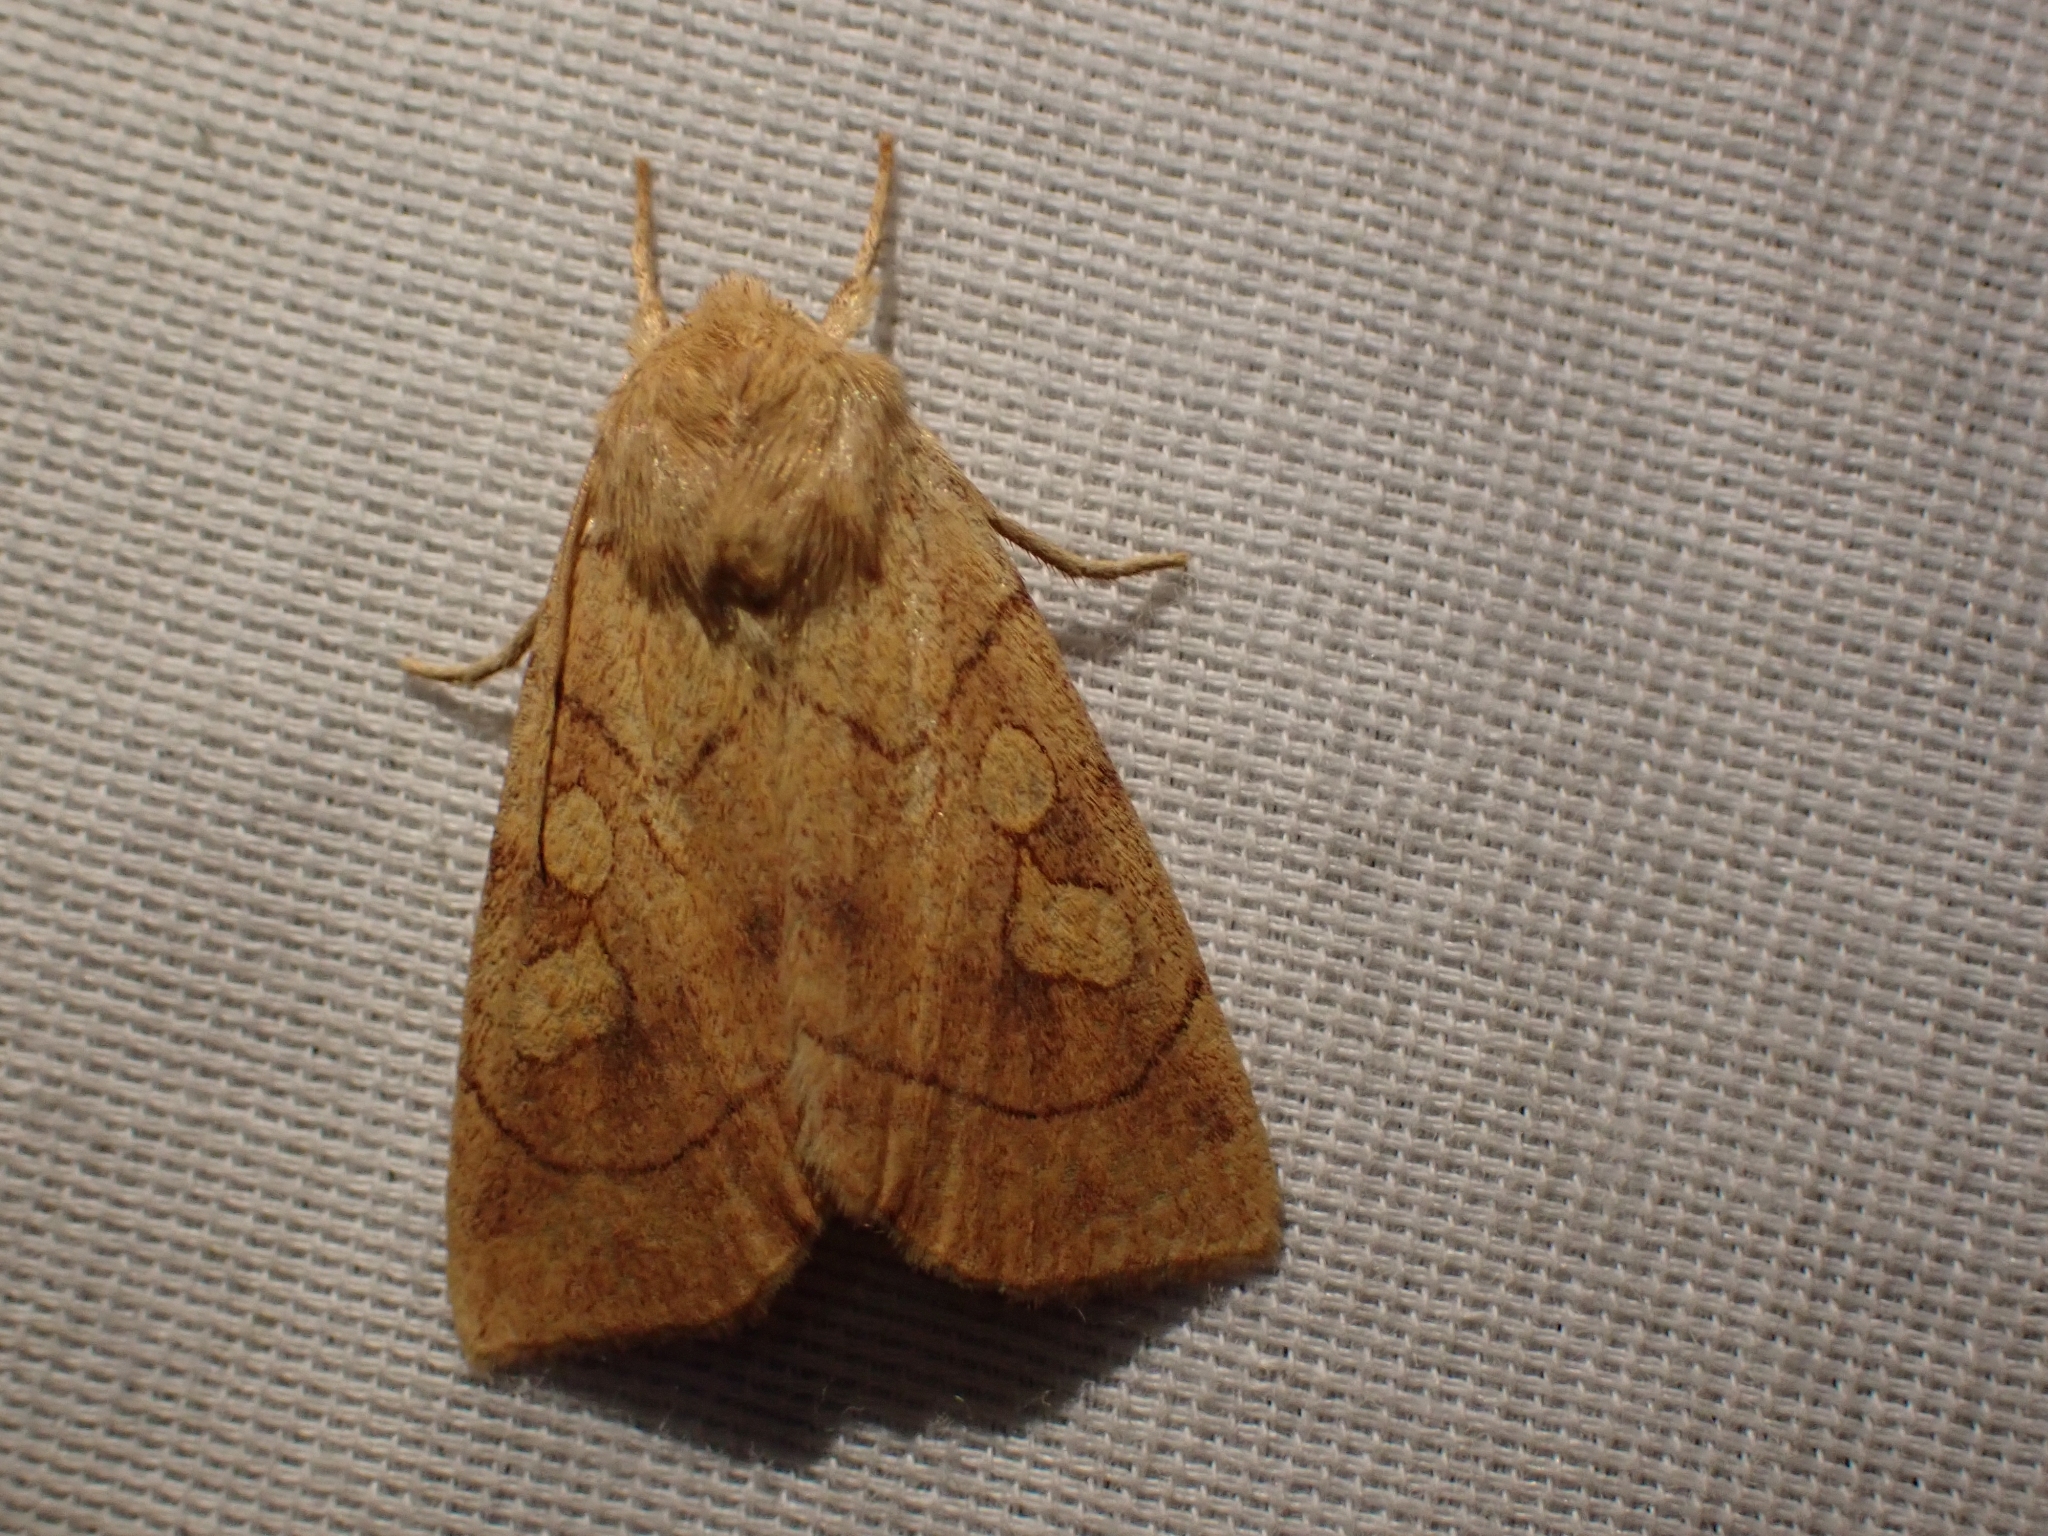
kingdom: Animalia
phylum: Arthropoda
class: Insecta
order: Lepidoptera
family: Noctuidae
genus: Enargia
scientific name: Enargia decolor
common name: Aspen twoleaf tier moth
